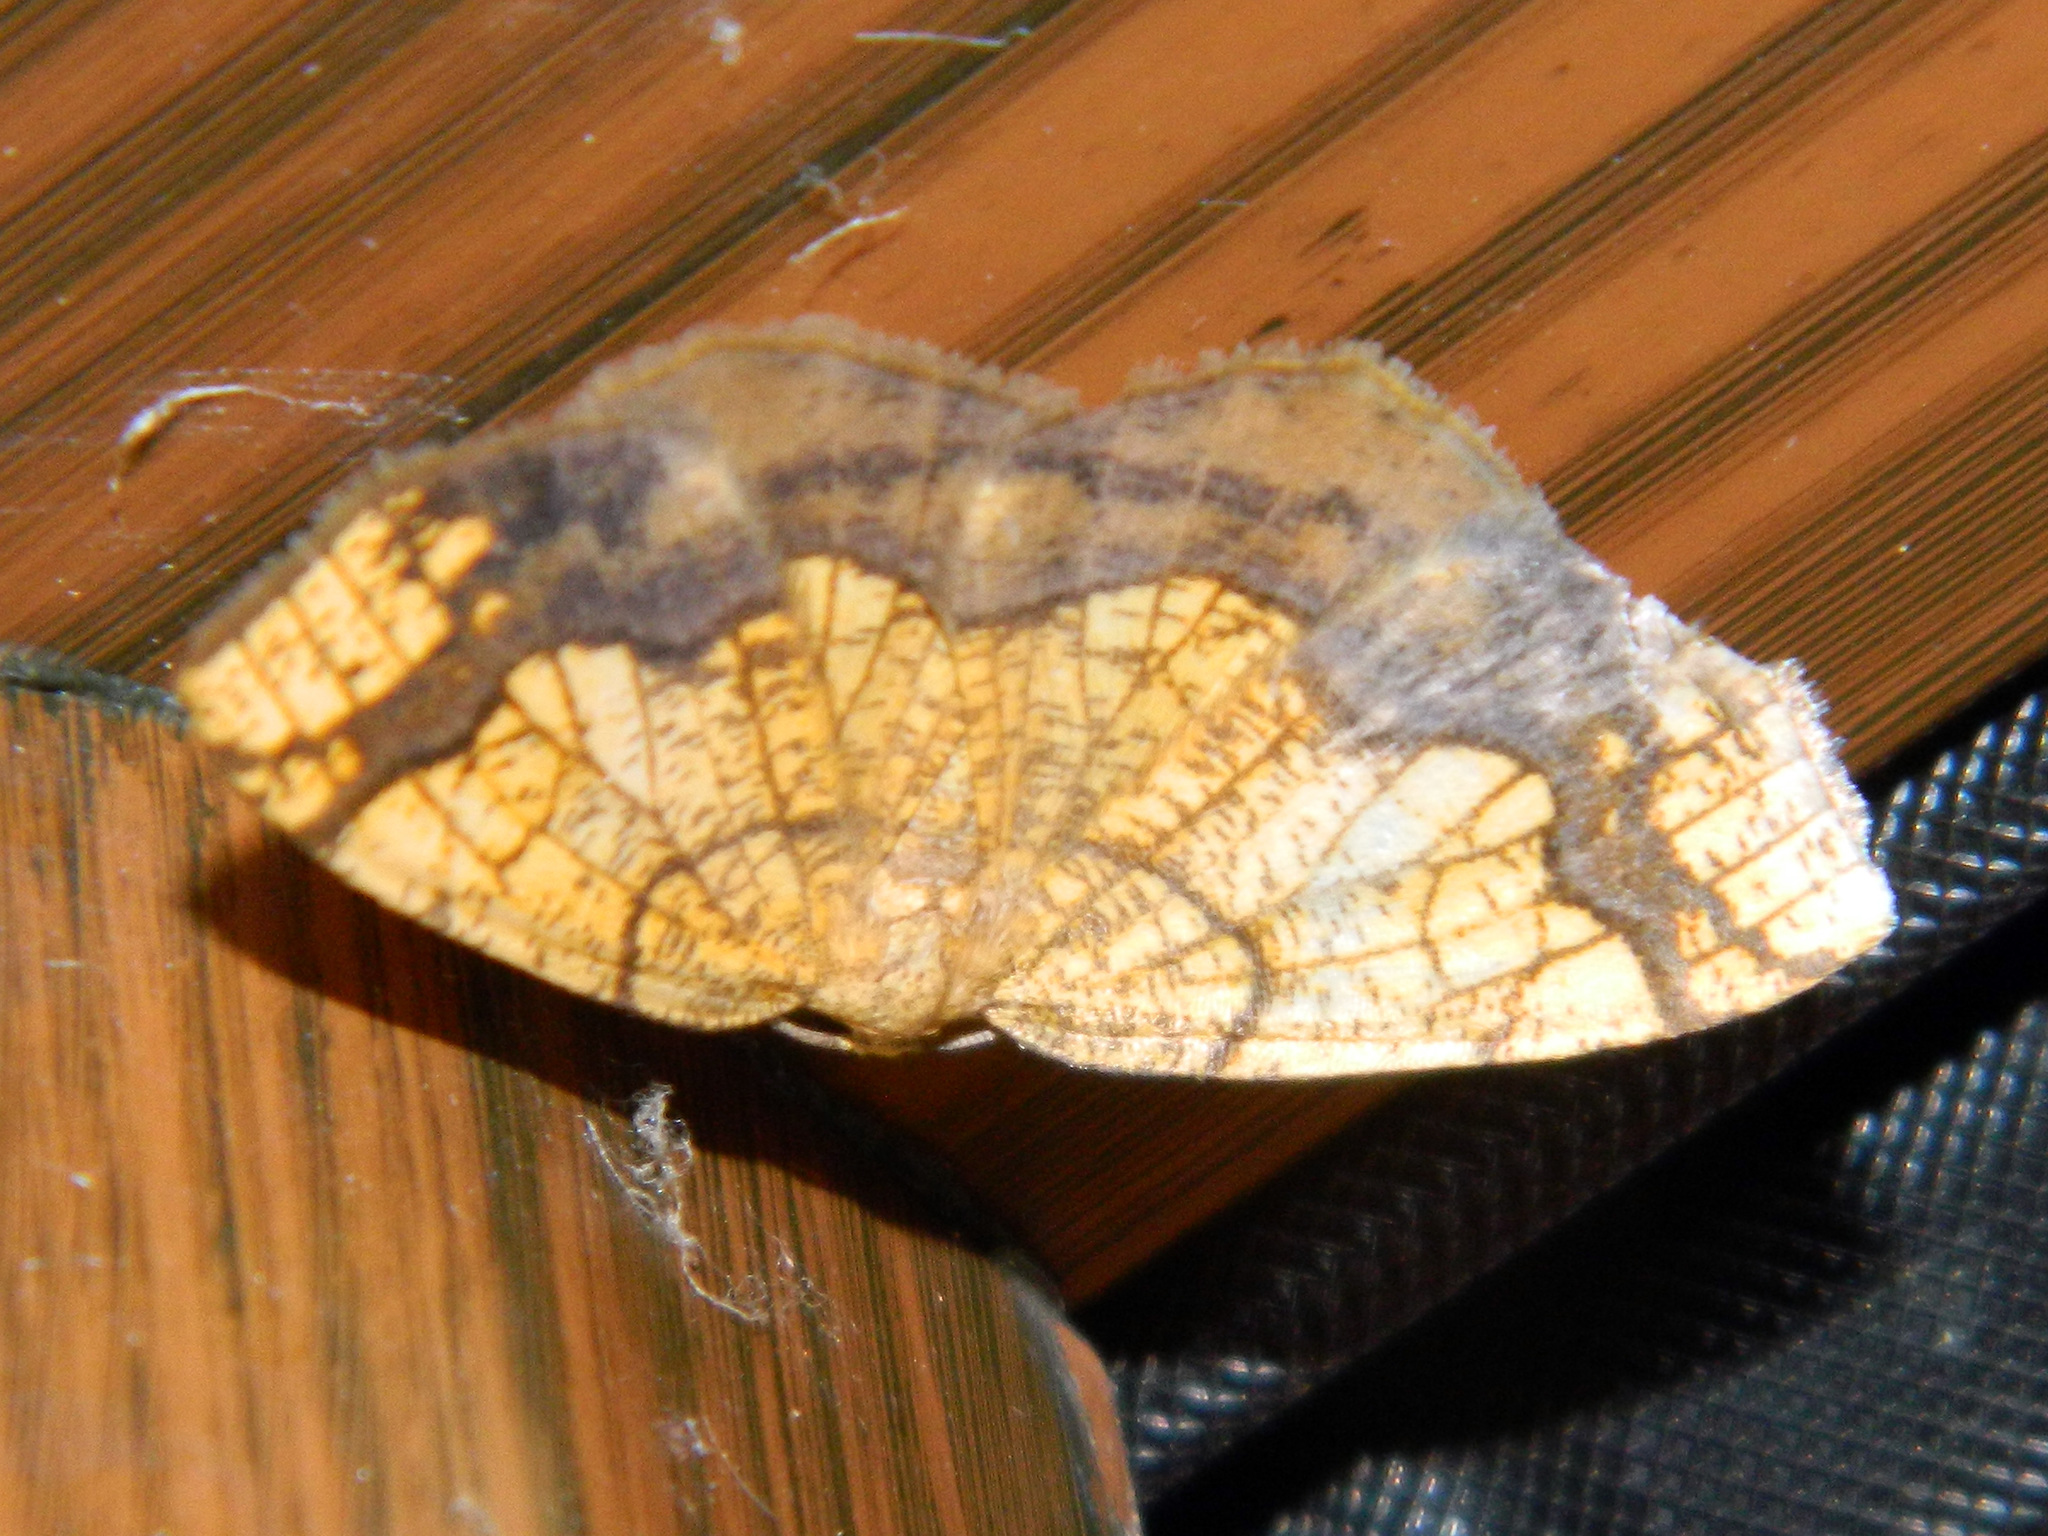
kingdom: Animalia
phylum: Arthropoda
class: Insecta
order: Lepidoptera
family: Geometridae
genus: Nematocampa
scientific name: Nematocampa resistaria
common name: Horned spanworm moth
